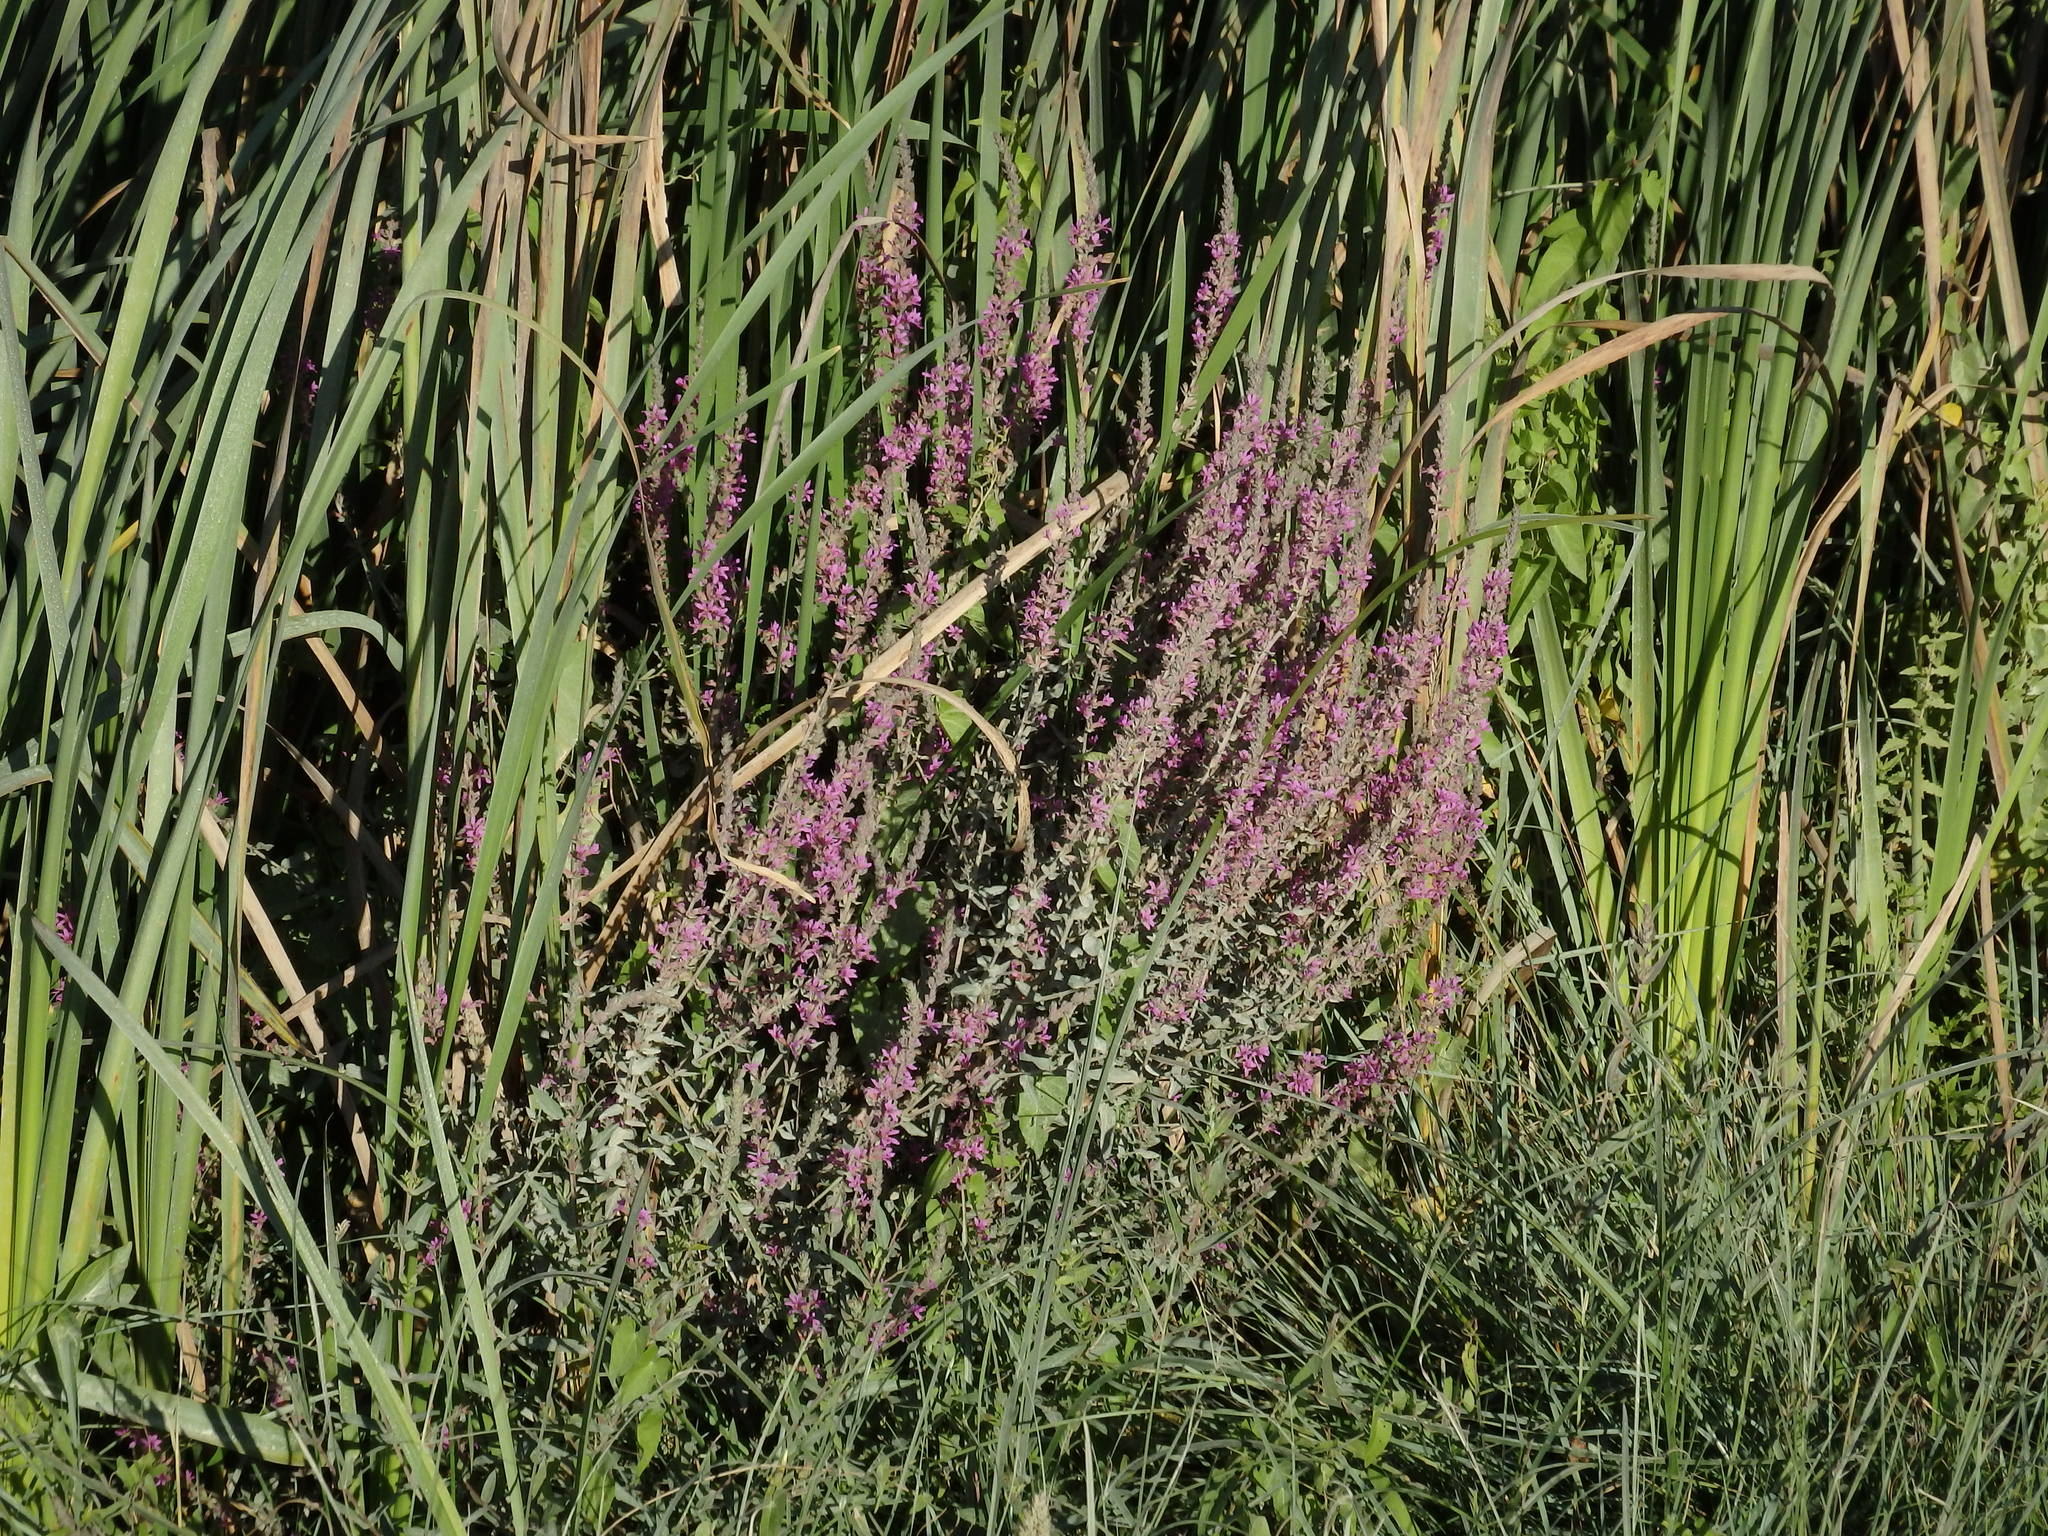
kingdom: Plantae
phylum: Tracheophyta
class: Magnoliopsida
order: Myrtales
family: Lythraceae
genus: Lythrum
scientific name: Lythrum salicaria
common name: Purple loosestrife
